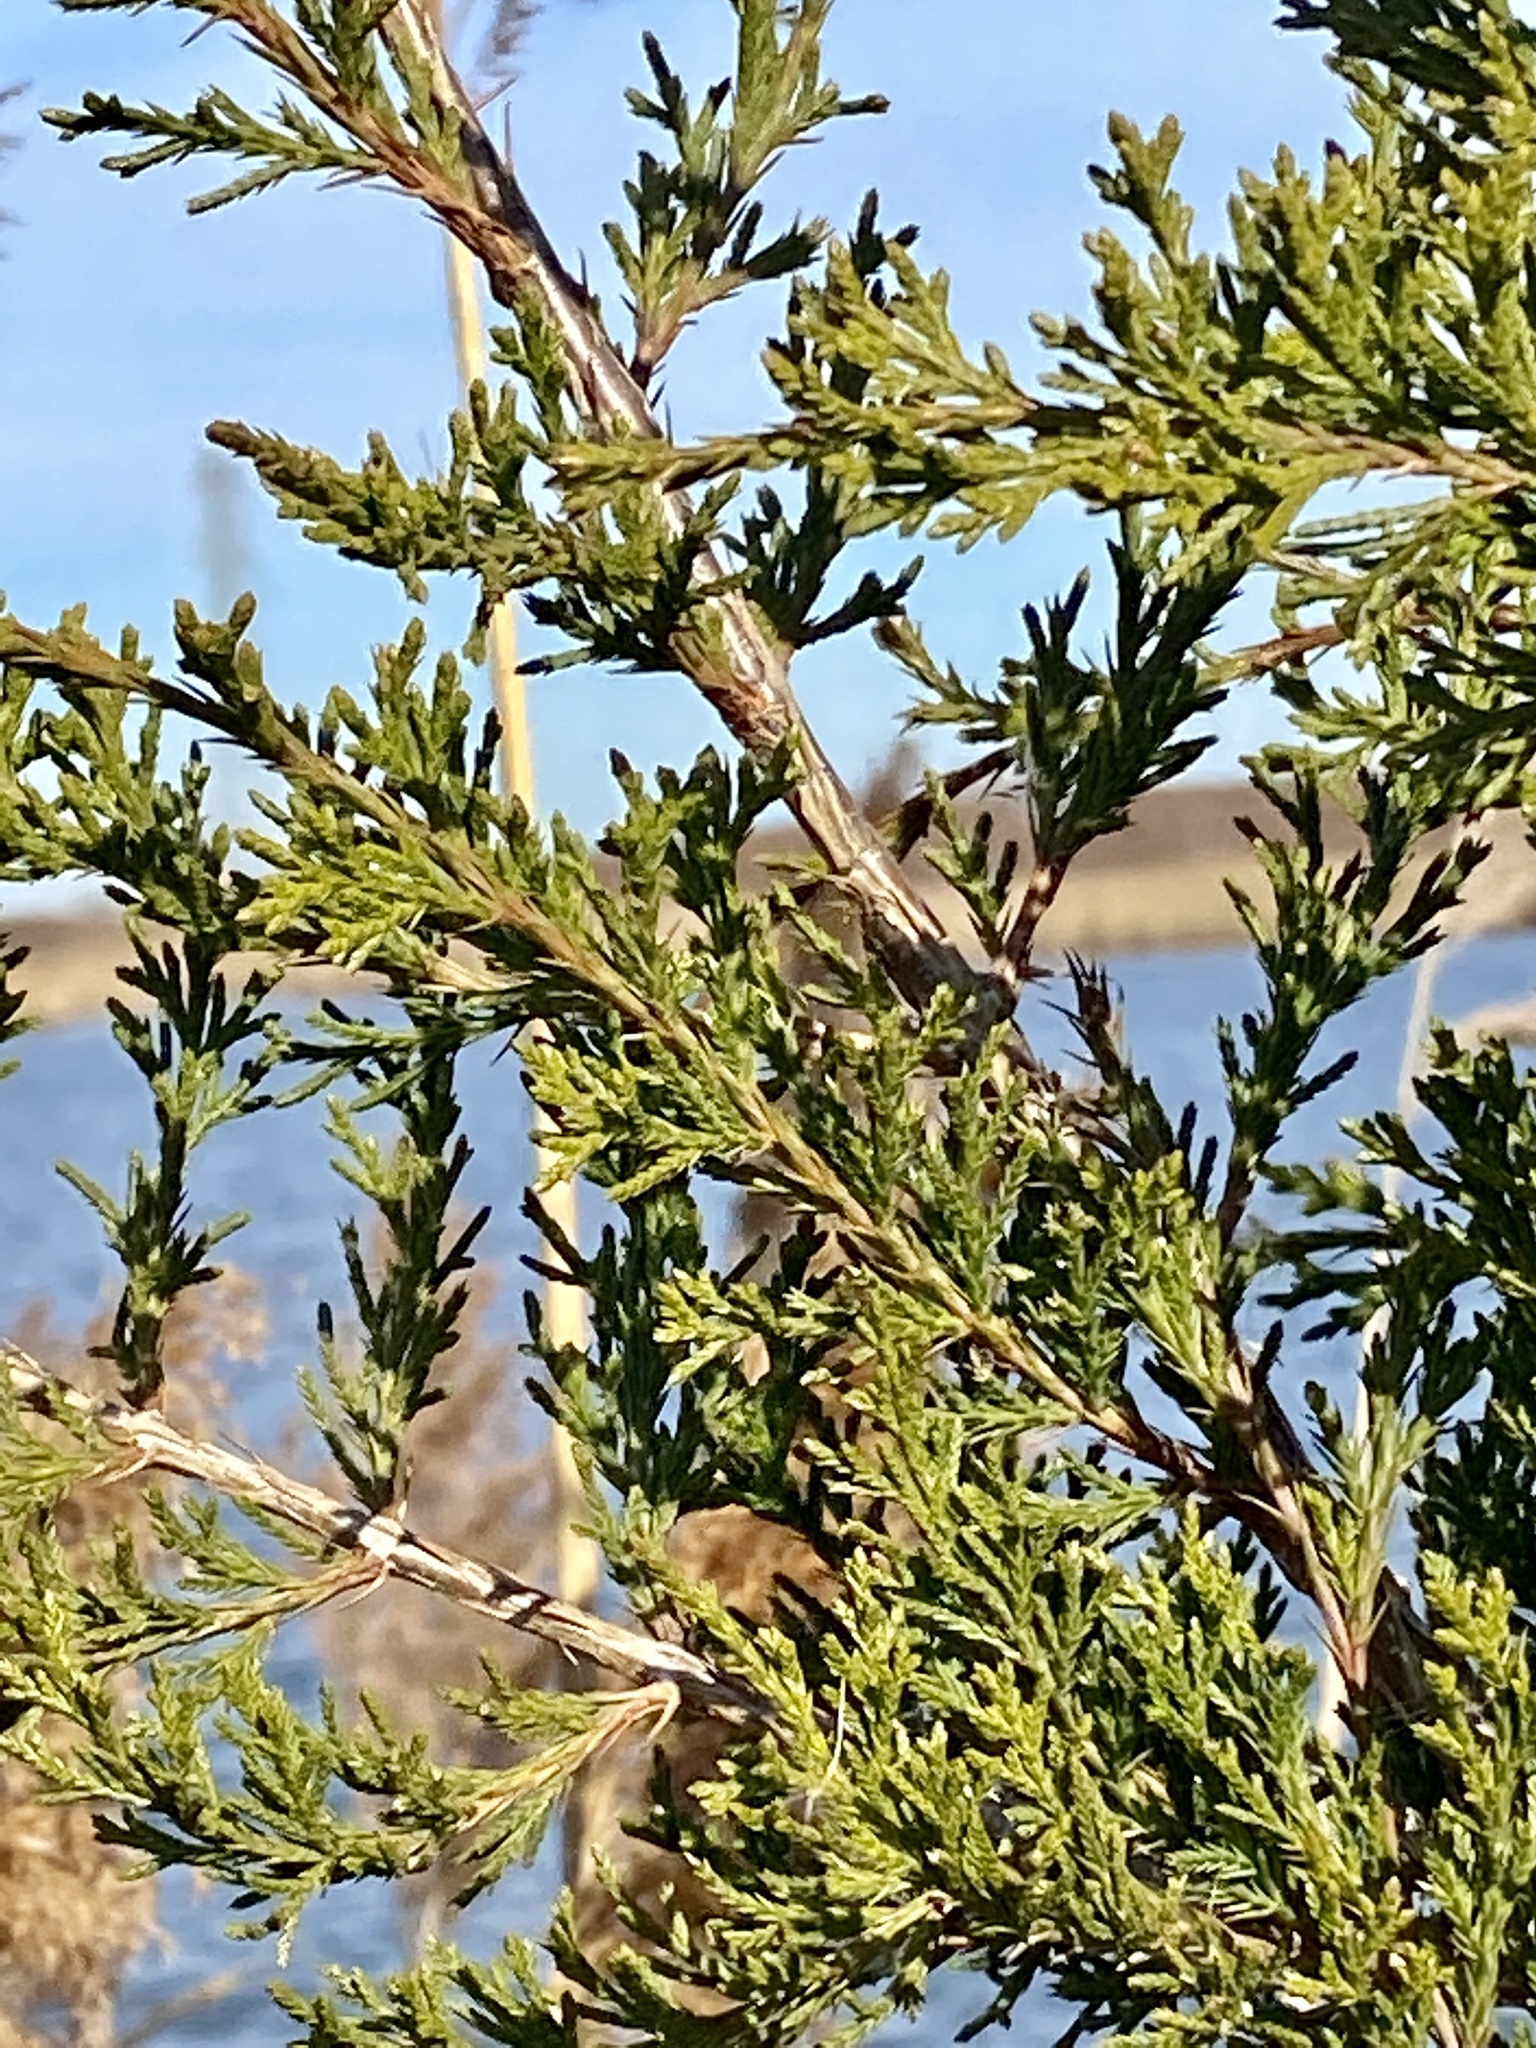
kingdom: Plantae
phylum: Tracheophyta
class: Pinopsida
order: Pinales
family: Cupressaceae
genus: Juniperus
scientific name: Juniperus virginiana
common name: Red juniper
